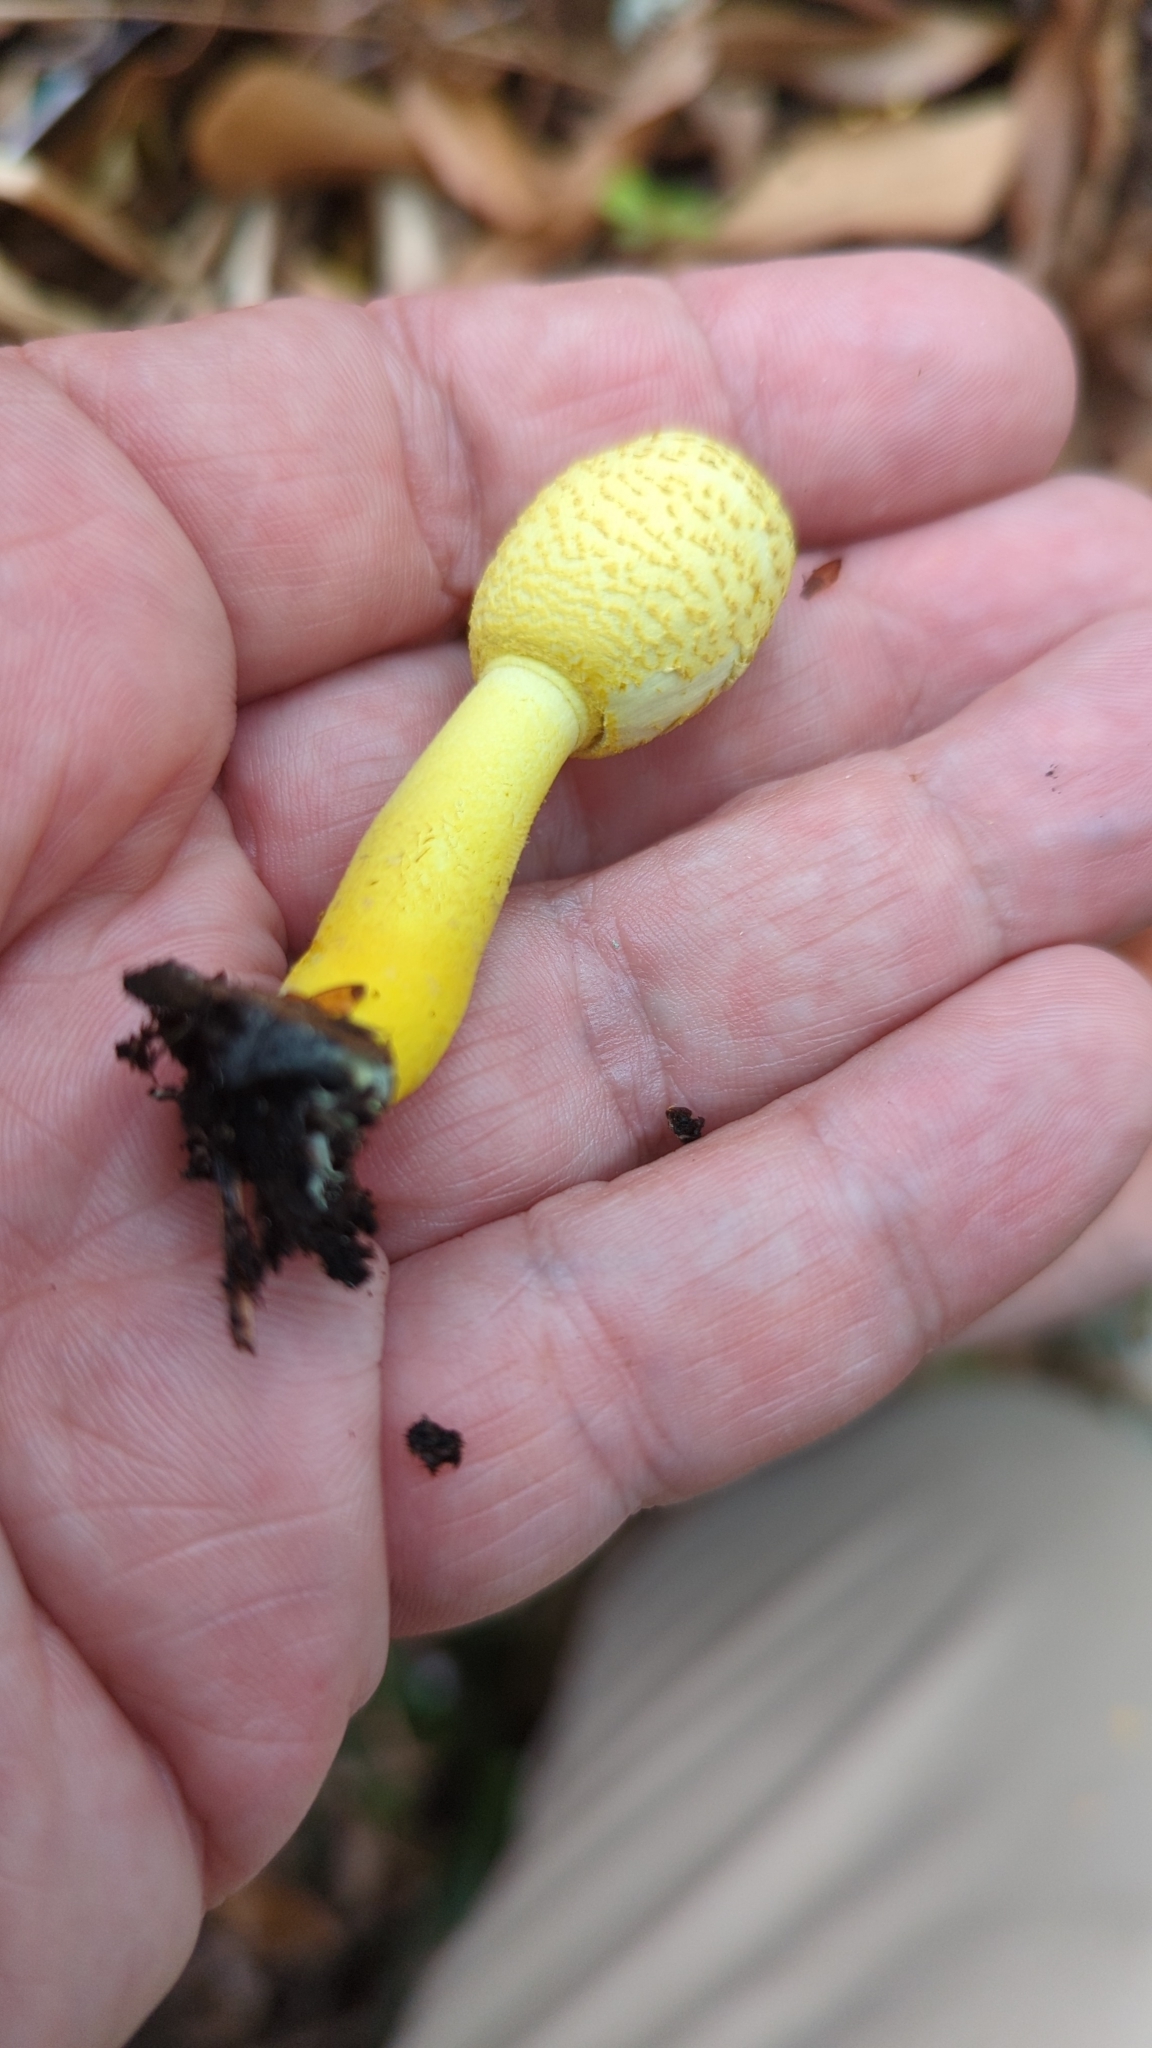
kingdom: Fungi
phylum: Basidiomycota
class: Agaricomycetes
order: Agaricales
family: Agaricaceae
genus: Leucocoprinus
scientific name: Leucocoprinus birnbaumii
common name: Plantpot dapperling
